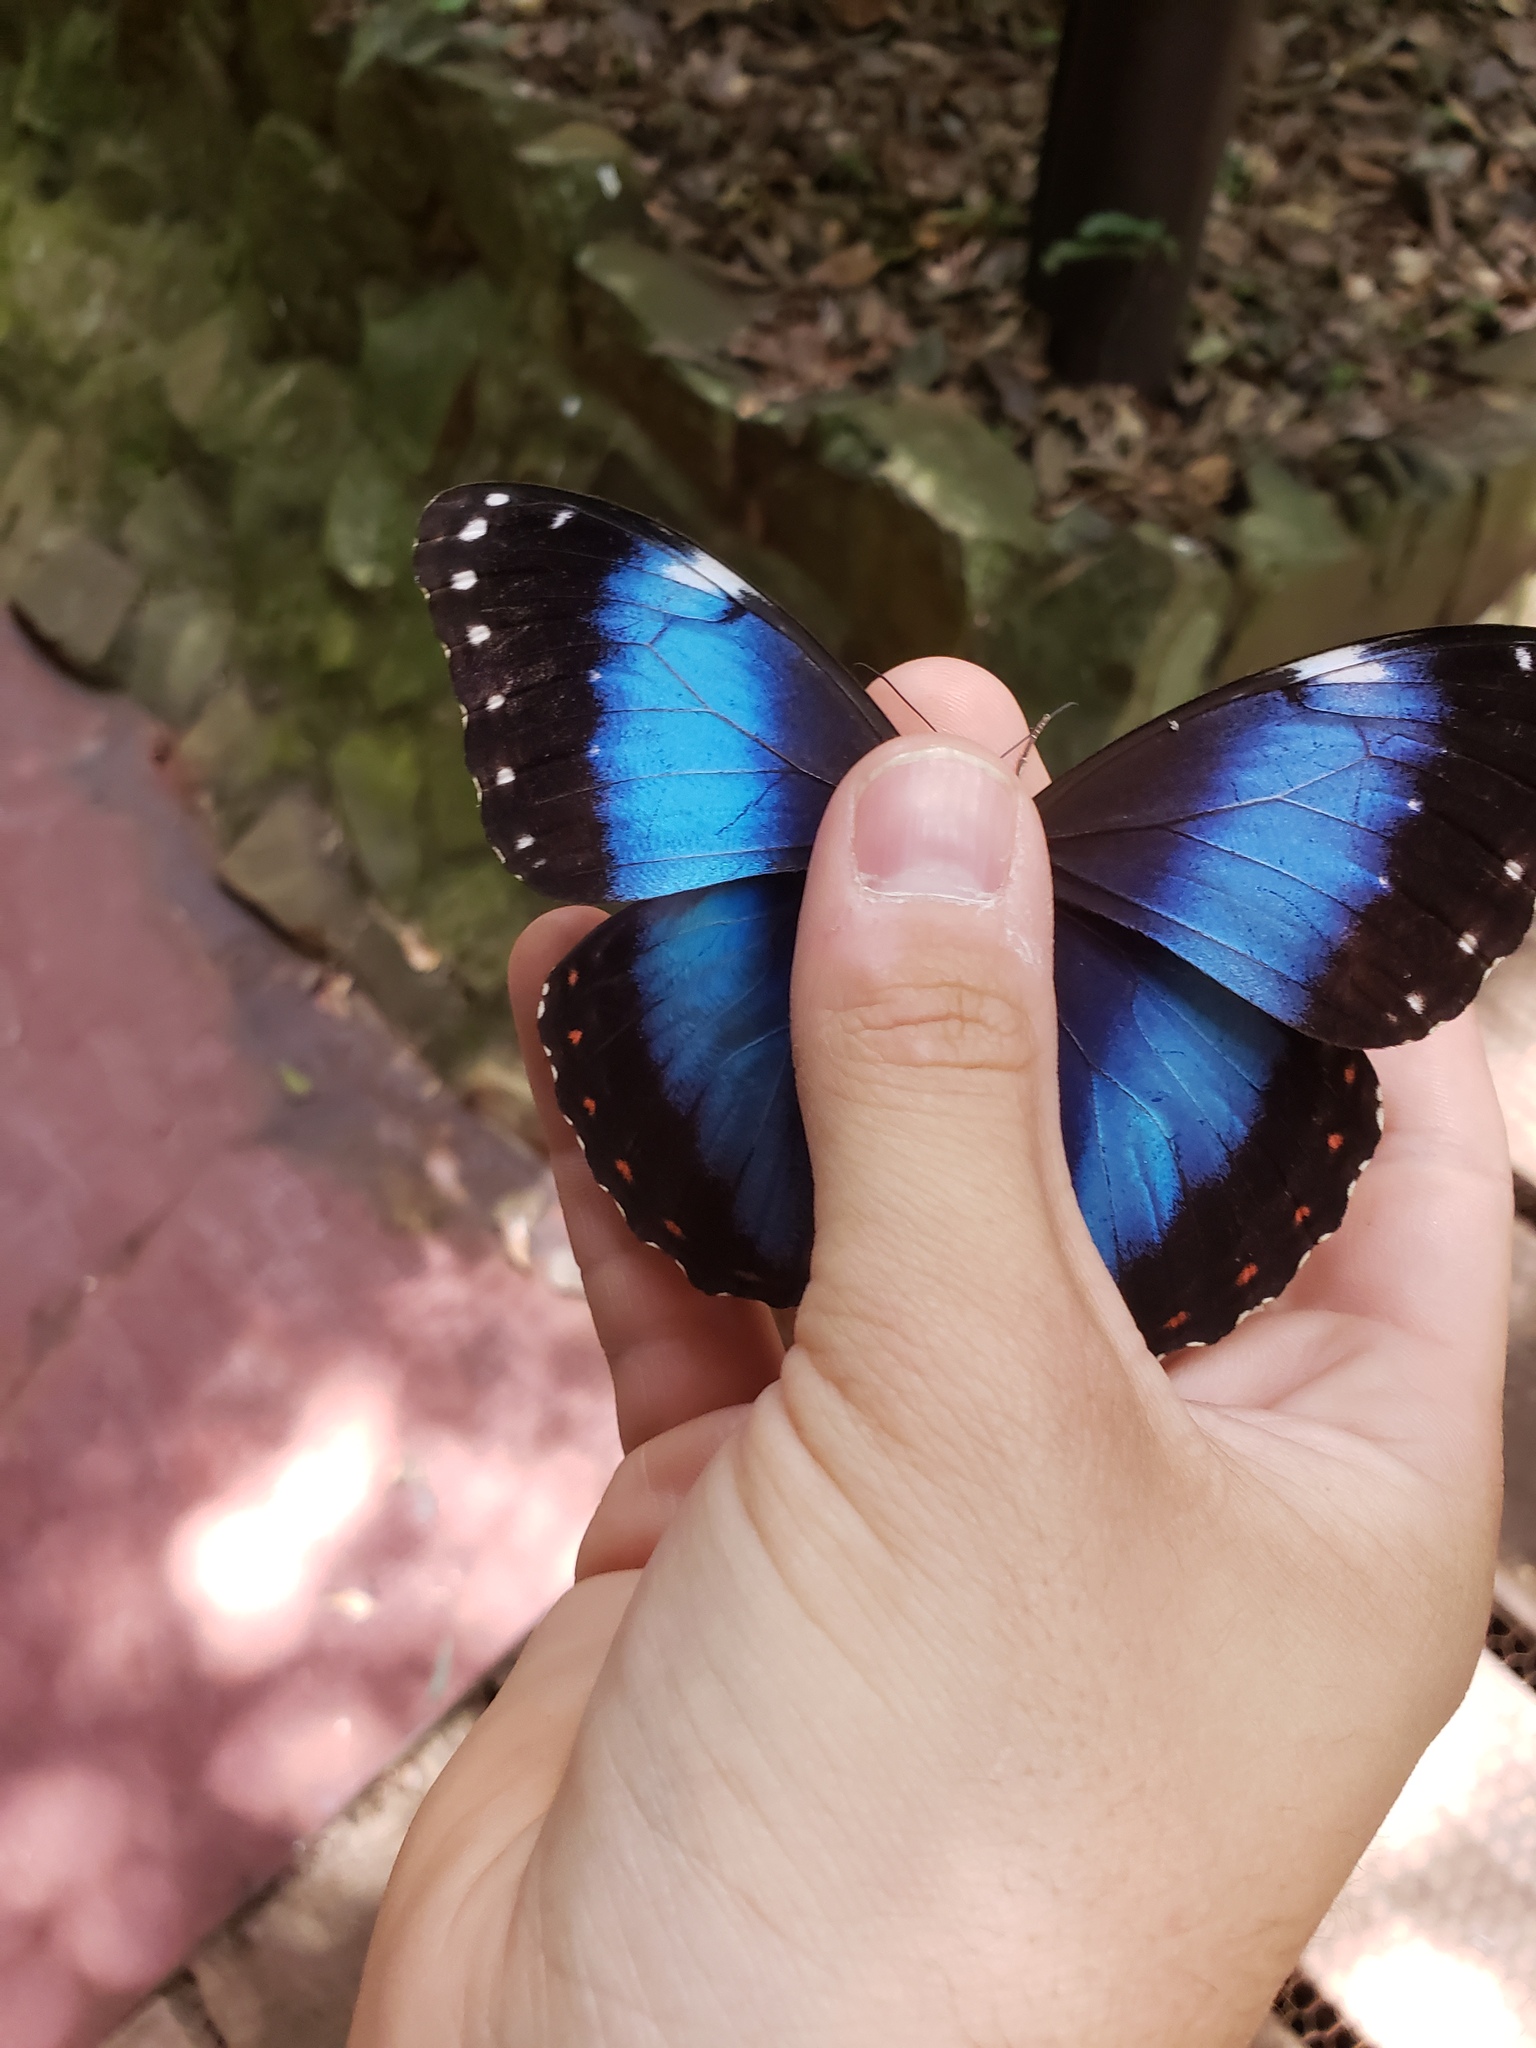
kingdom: Animalia
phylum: Arthropoda
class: Insecta
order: Lepidoptera
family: Nymphalidae
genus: Morpho
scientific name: Morpho helenor
